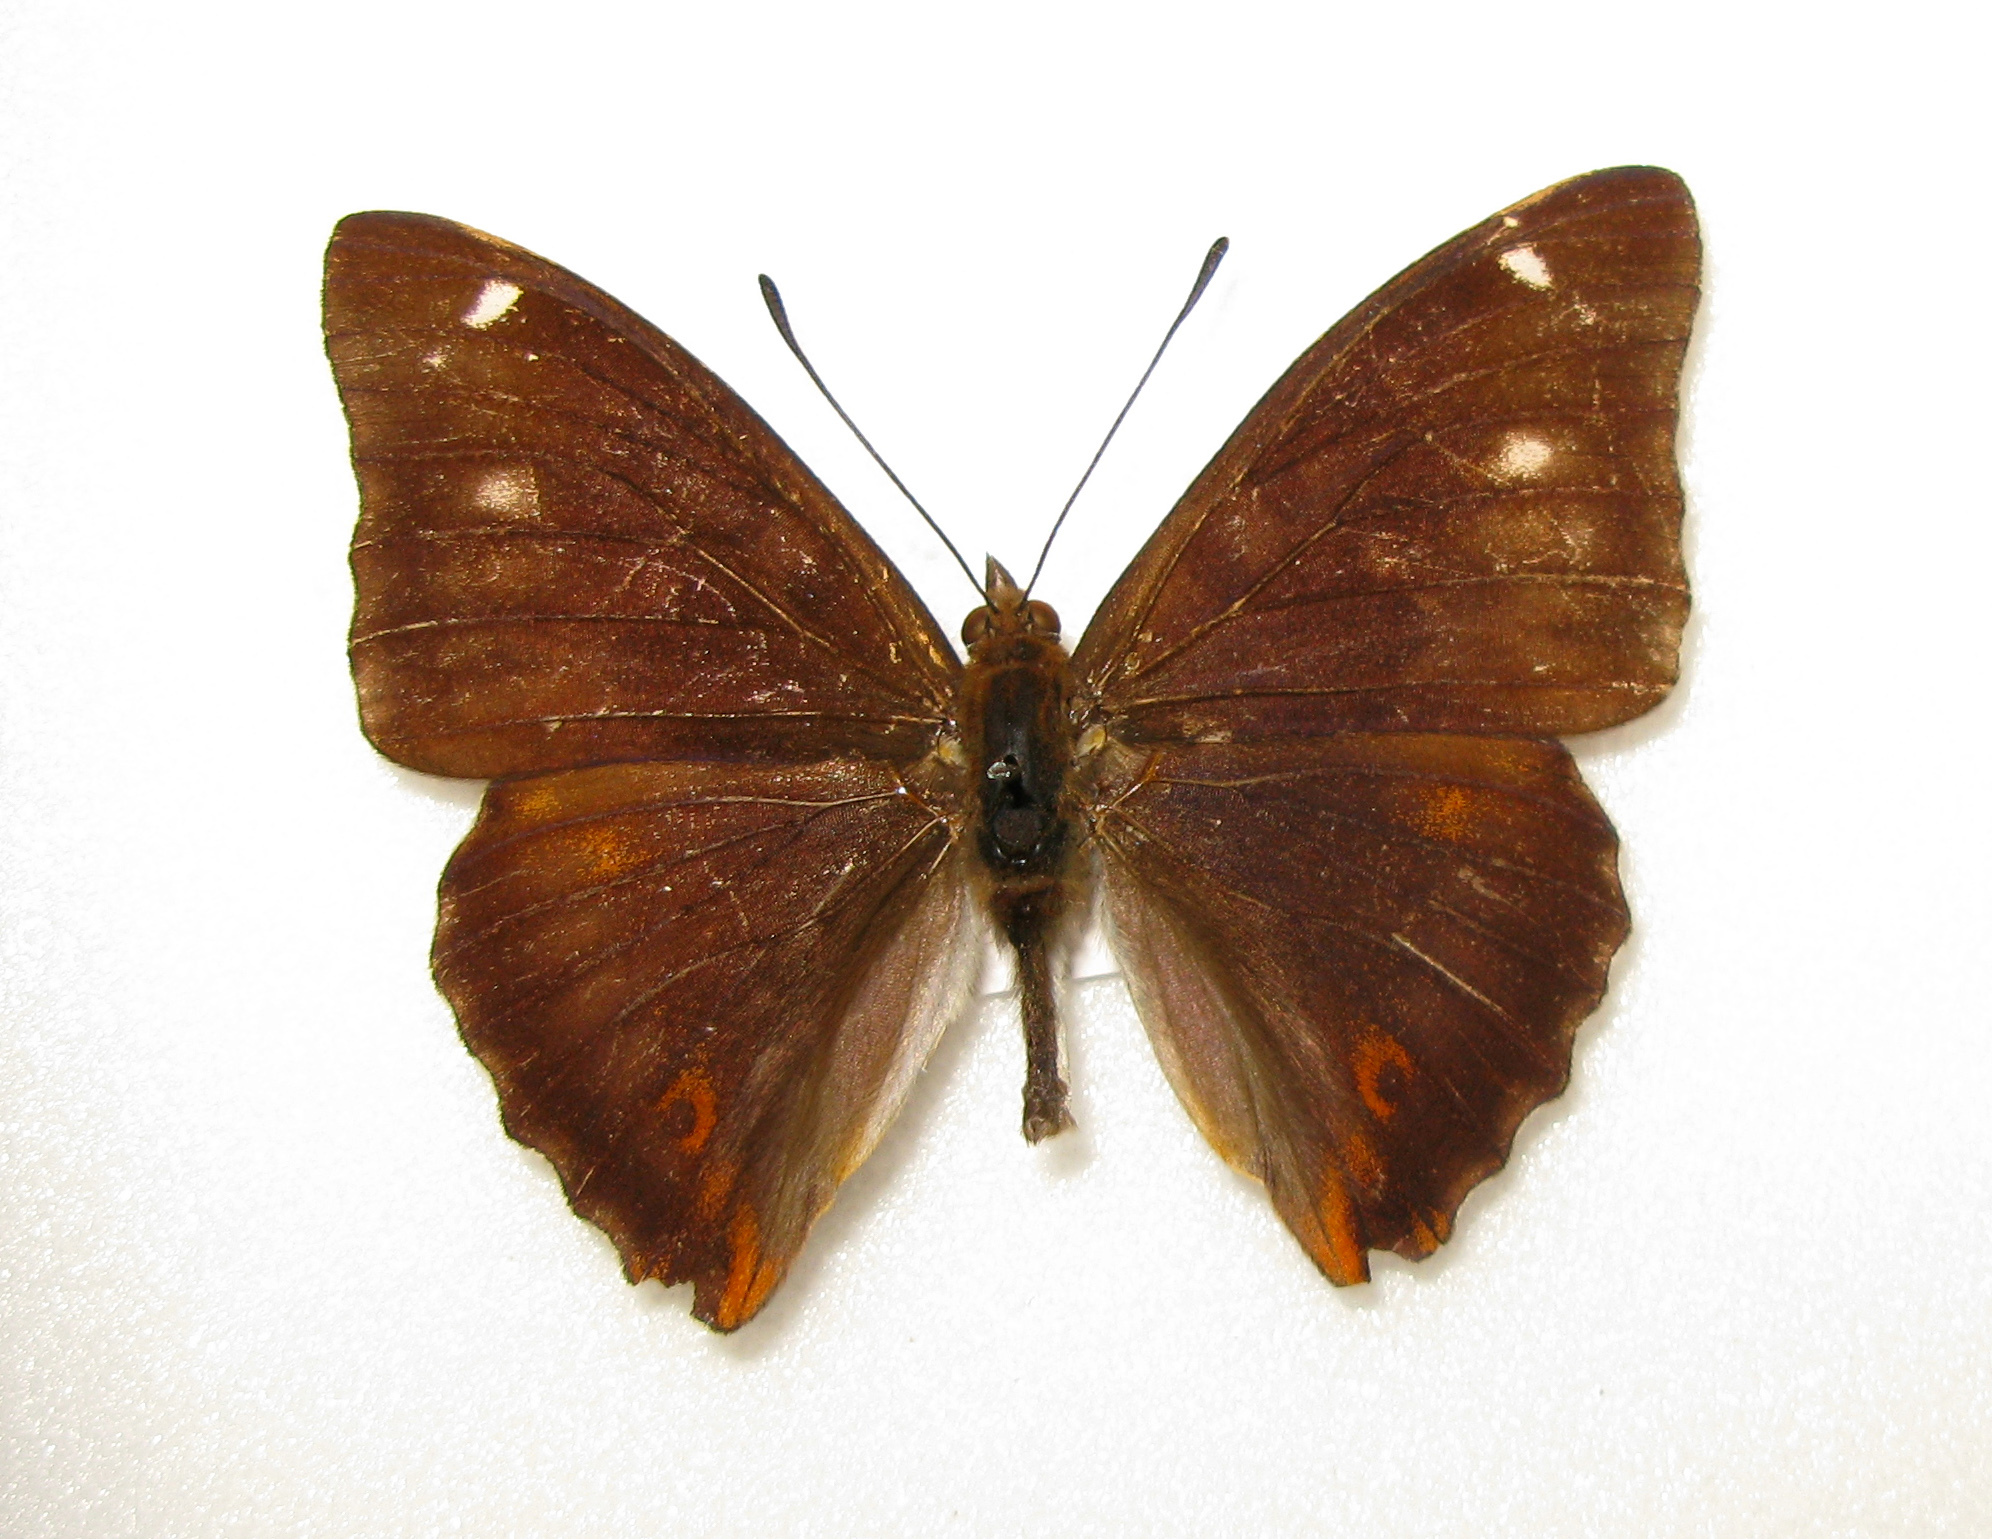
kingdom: Animalia
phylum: Arthropoda
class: Insecta
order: Lepidoptera
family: Nymphalidae
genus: Apatura
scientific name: Apatura iris
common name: Purple emperor
